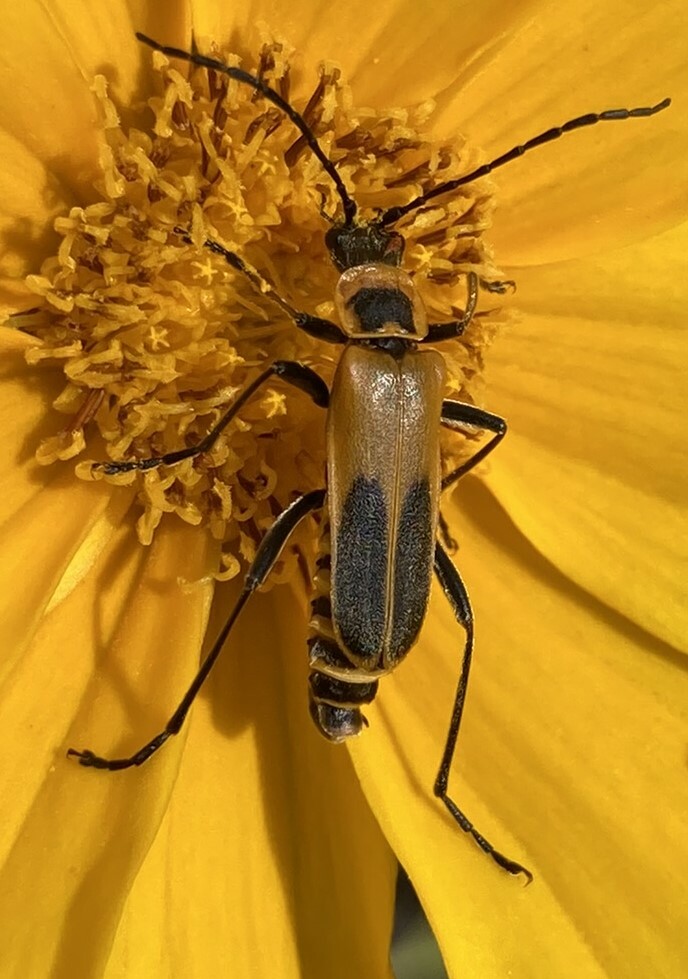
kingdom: Animalia
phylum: Arthropoda
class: Insecta
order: Coleoptera
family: Cantharidae
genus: Chauliognathus
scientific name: Chauliognathus pensylvanicus
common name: Goldenrod soldier beetle
